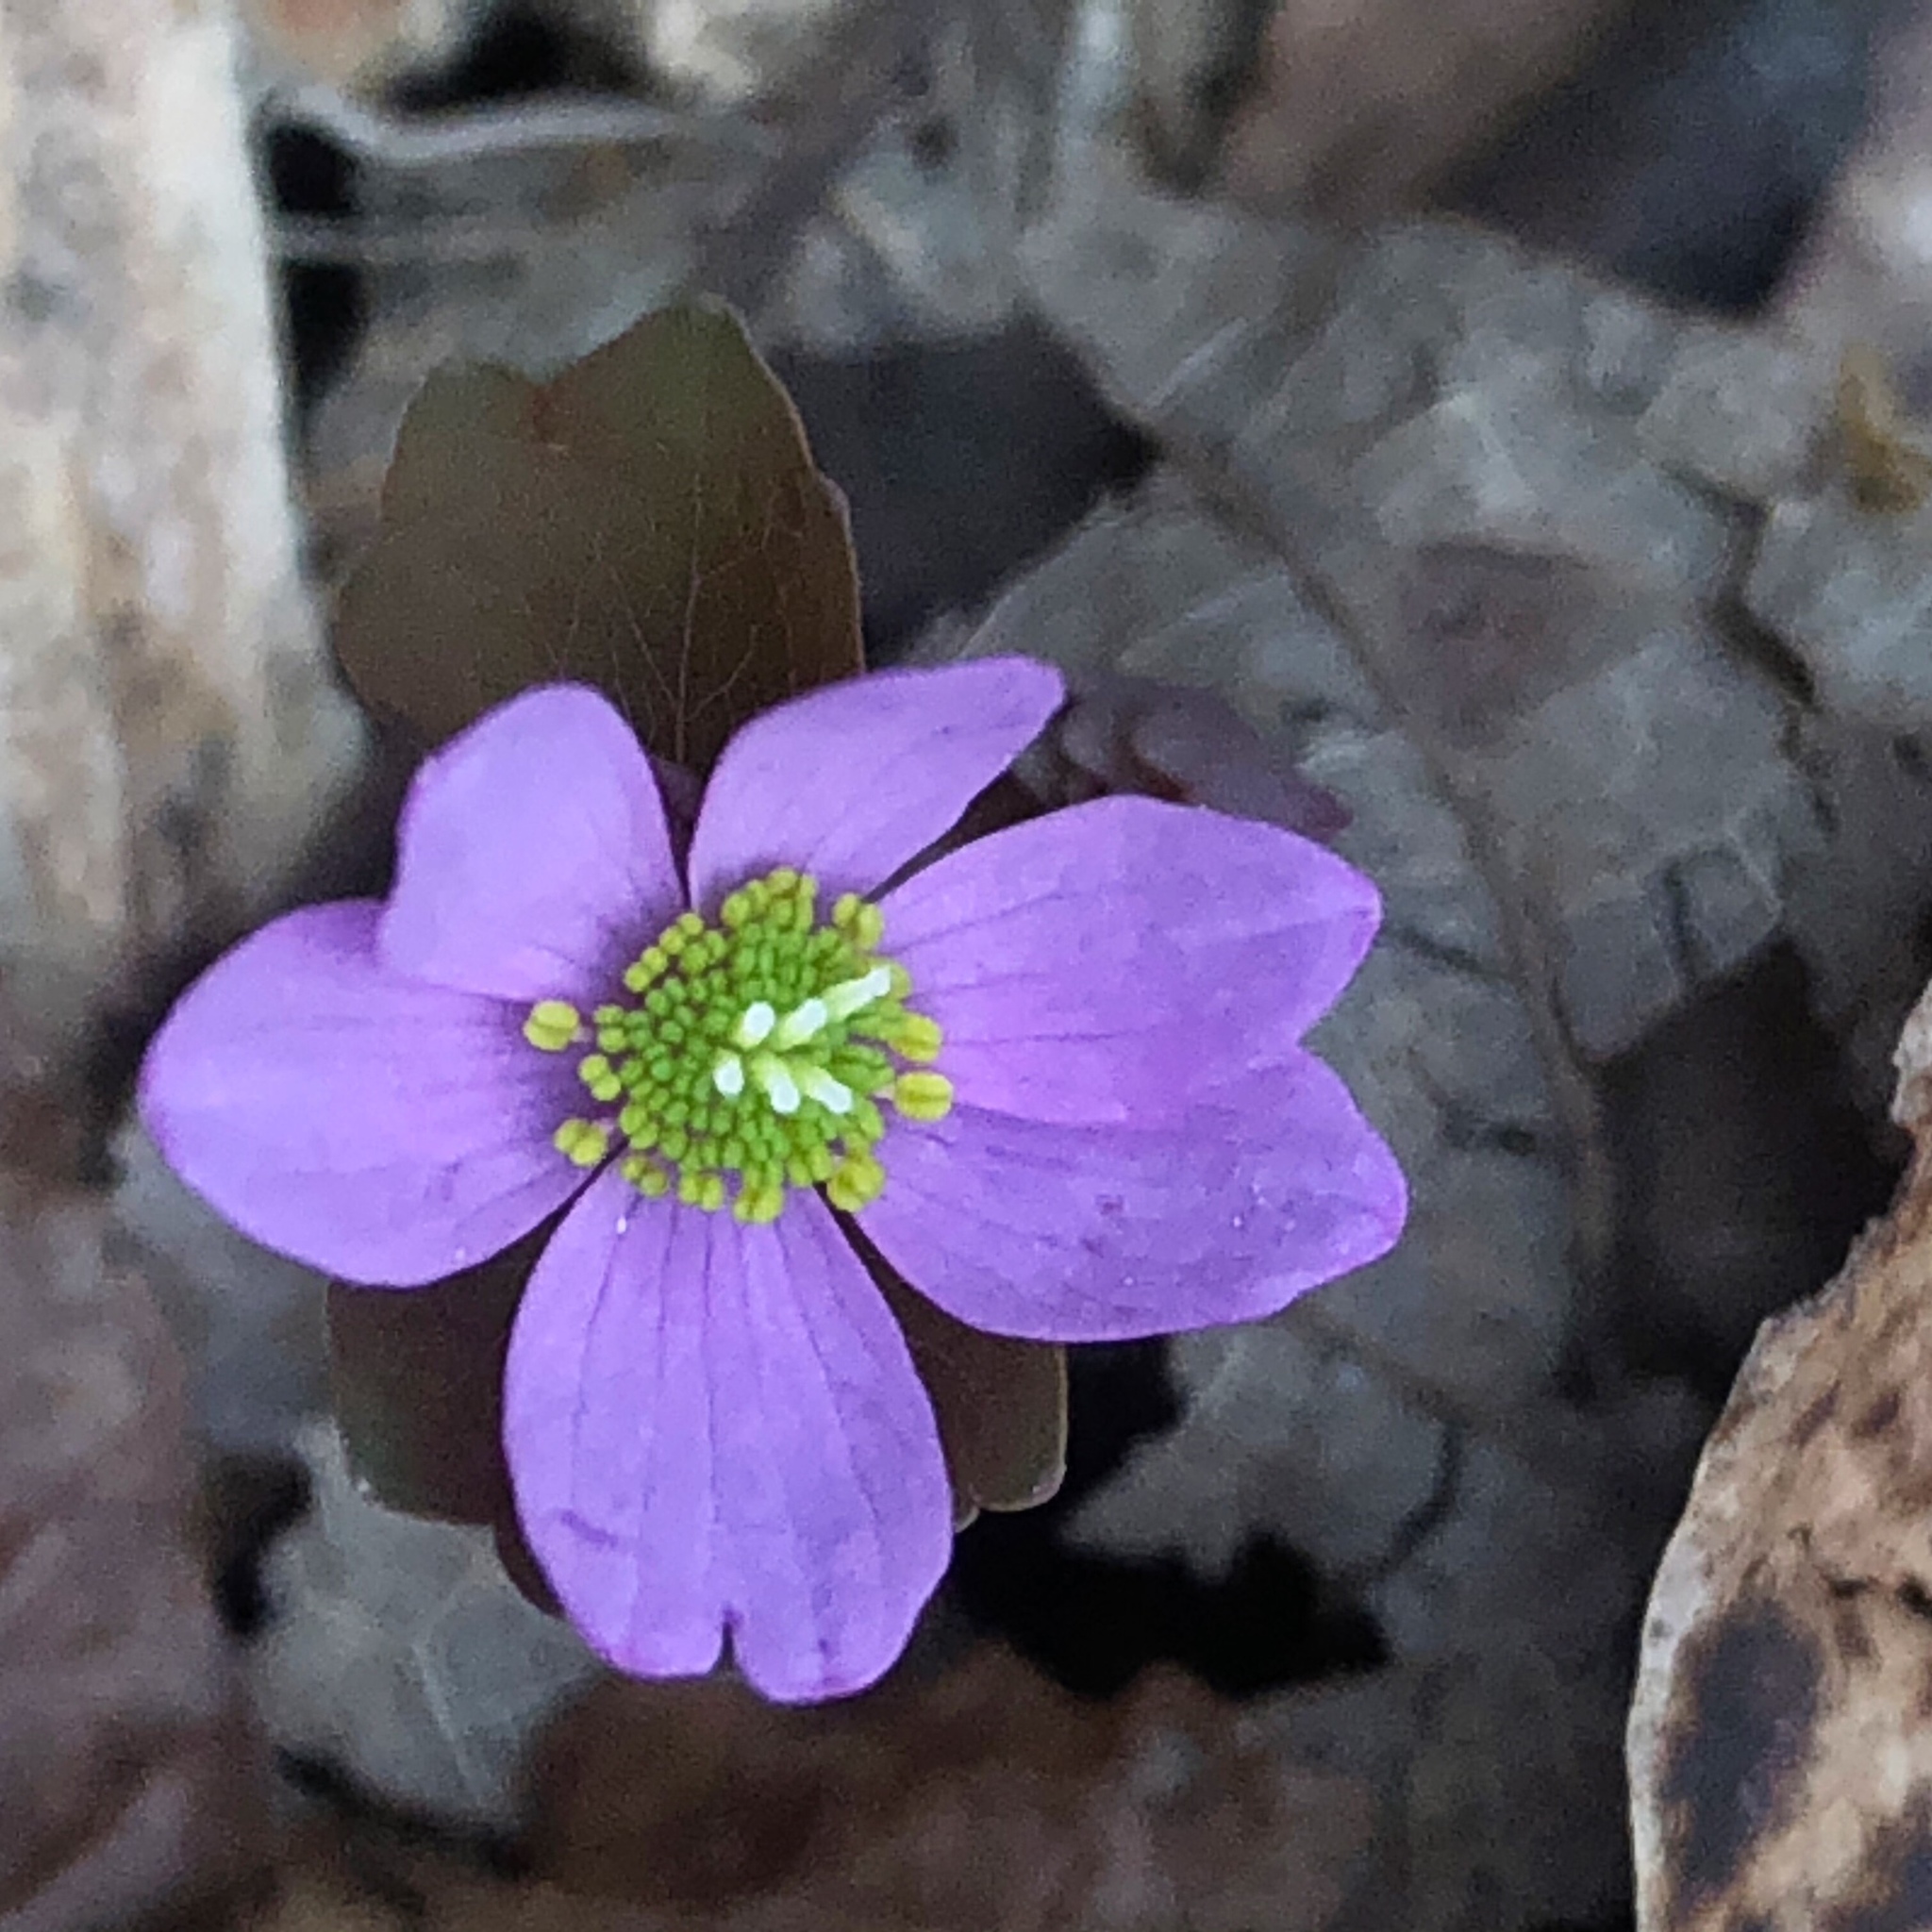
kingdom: Plantae
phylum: Tracheophyta
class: Magnoliopsida
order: Ranunculales
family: Ranunculaceae
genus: Thalictrum
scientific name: Thalictrum thalictroides
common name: Rue-anemone
